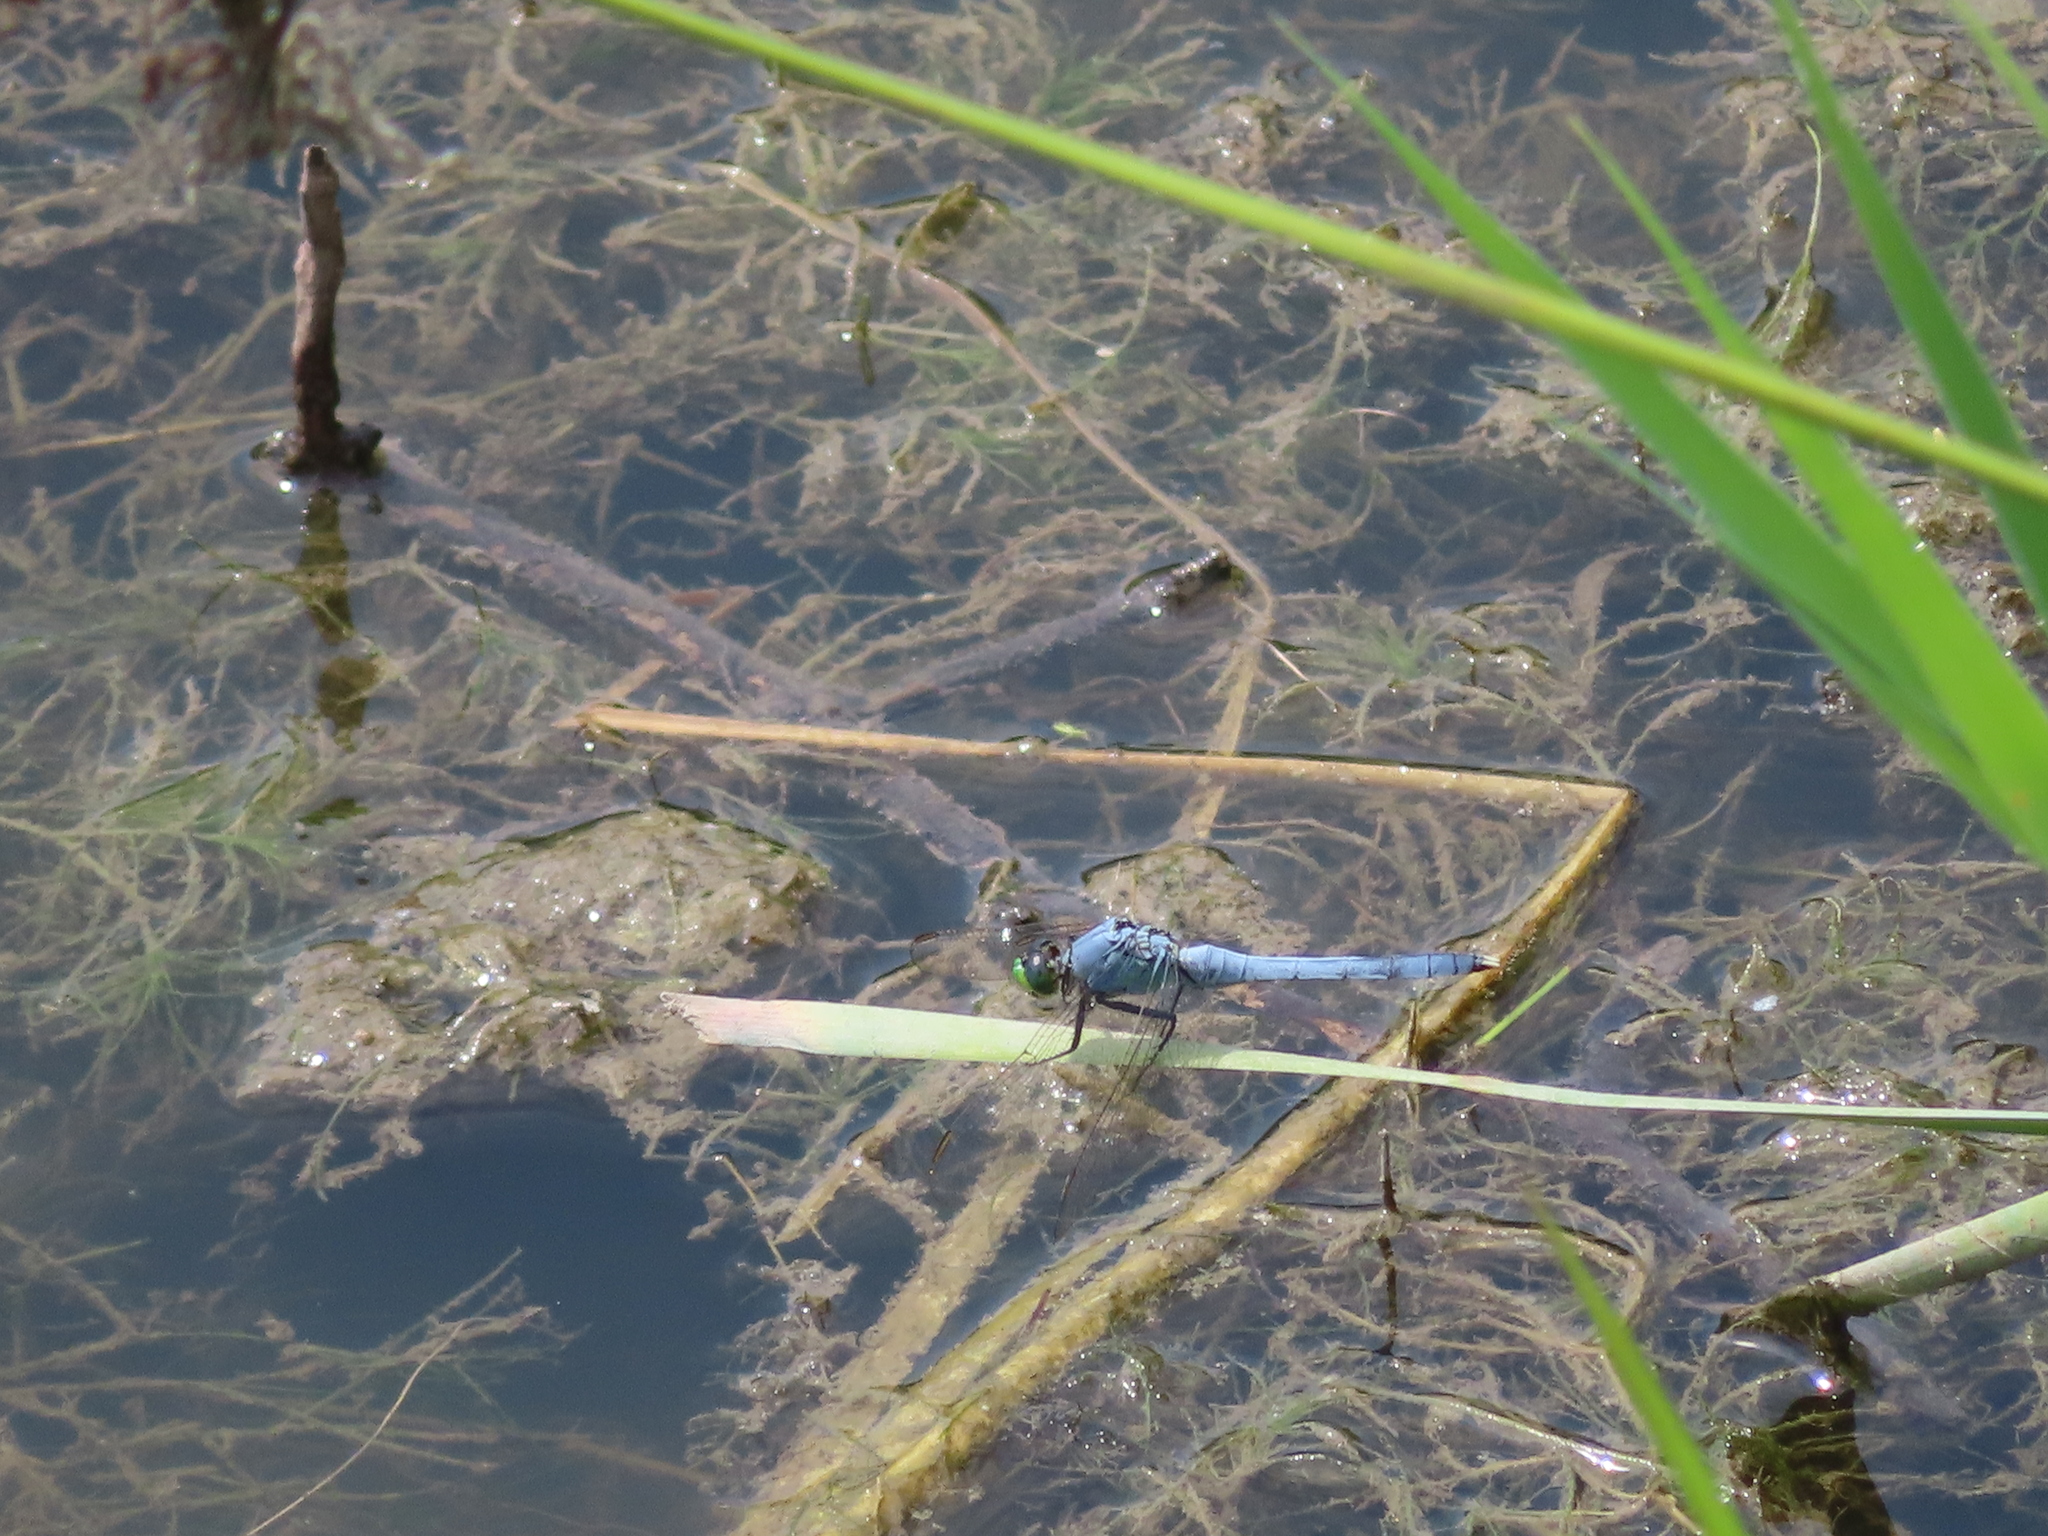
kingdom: Animalia
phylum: Arthropoda
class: Insecta
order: Odonata
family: Libellulidae
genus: Erythemis
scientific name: Erythemis simplicicollis
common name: Eastern pondhawk
